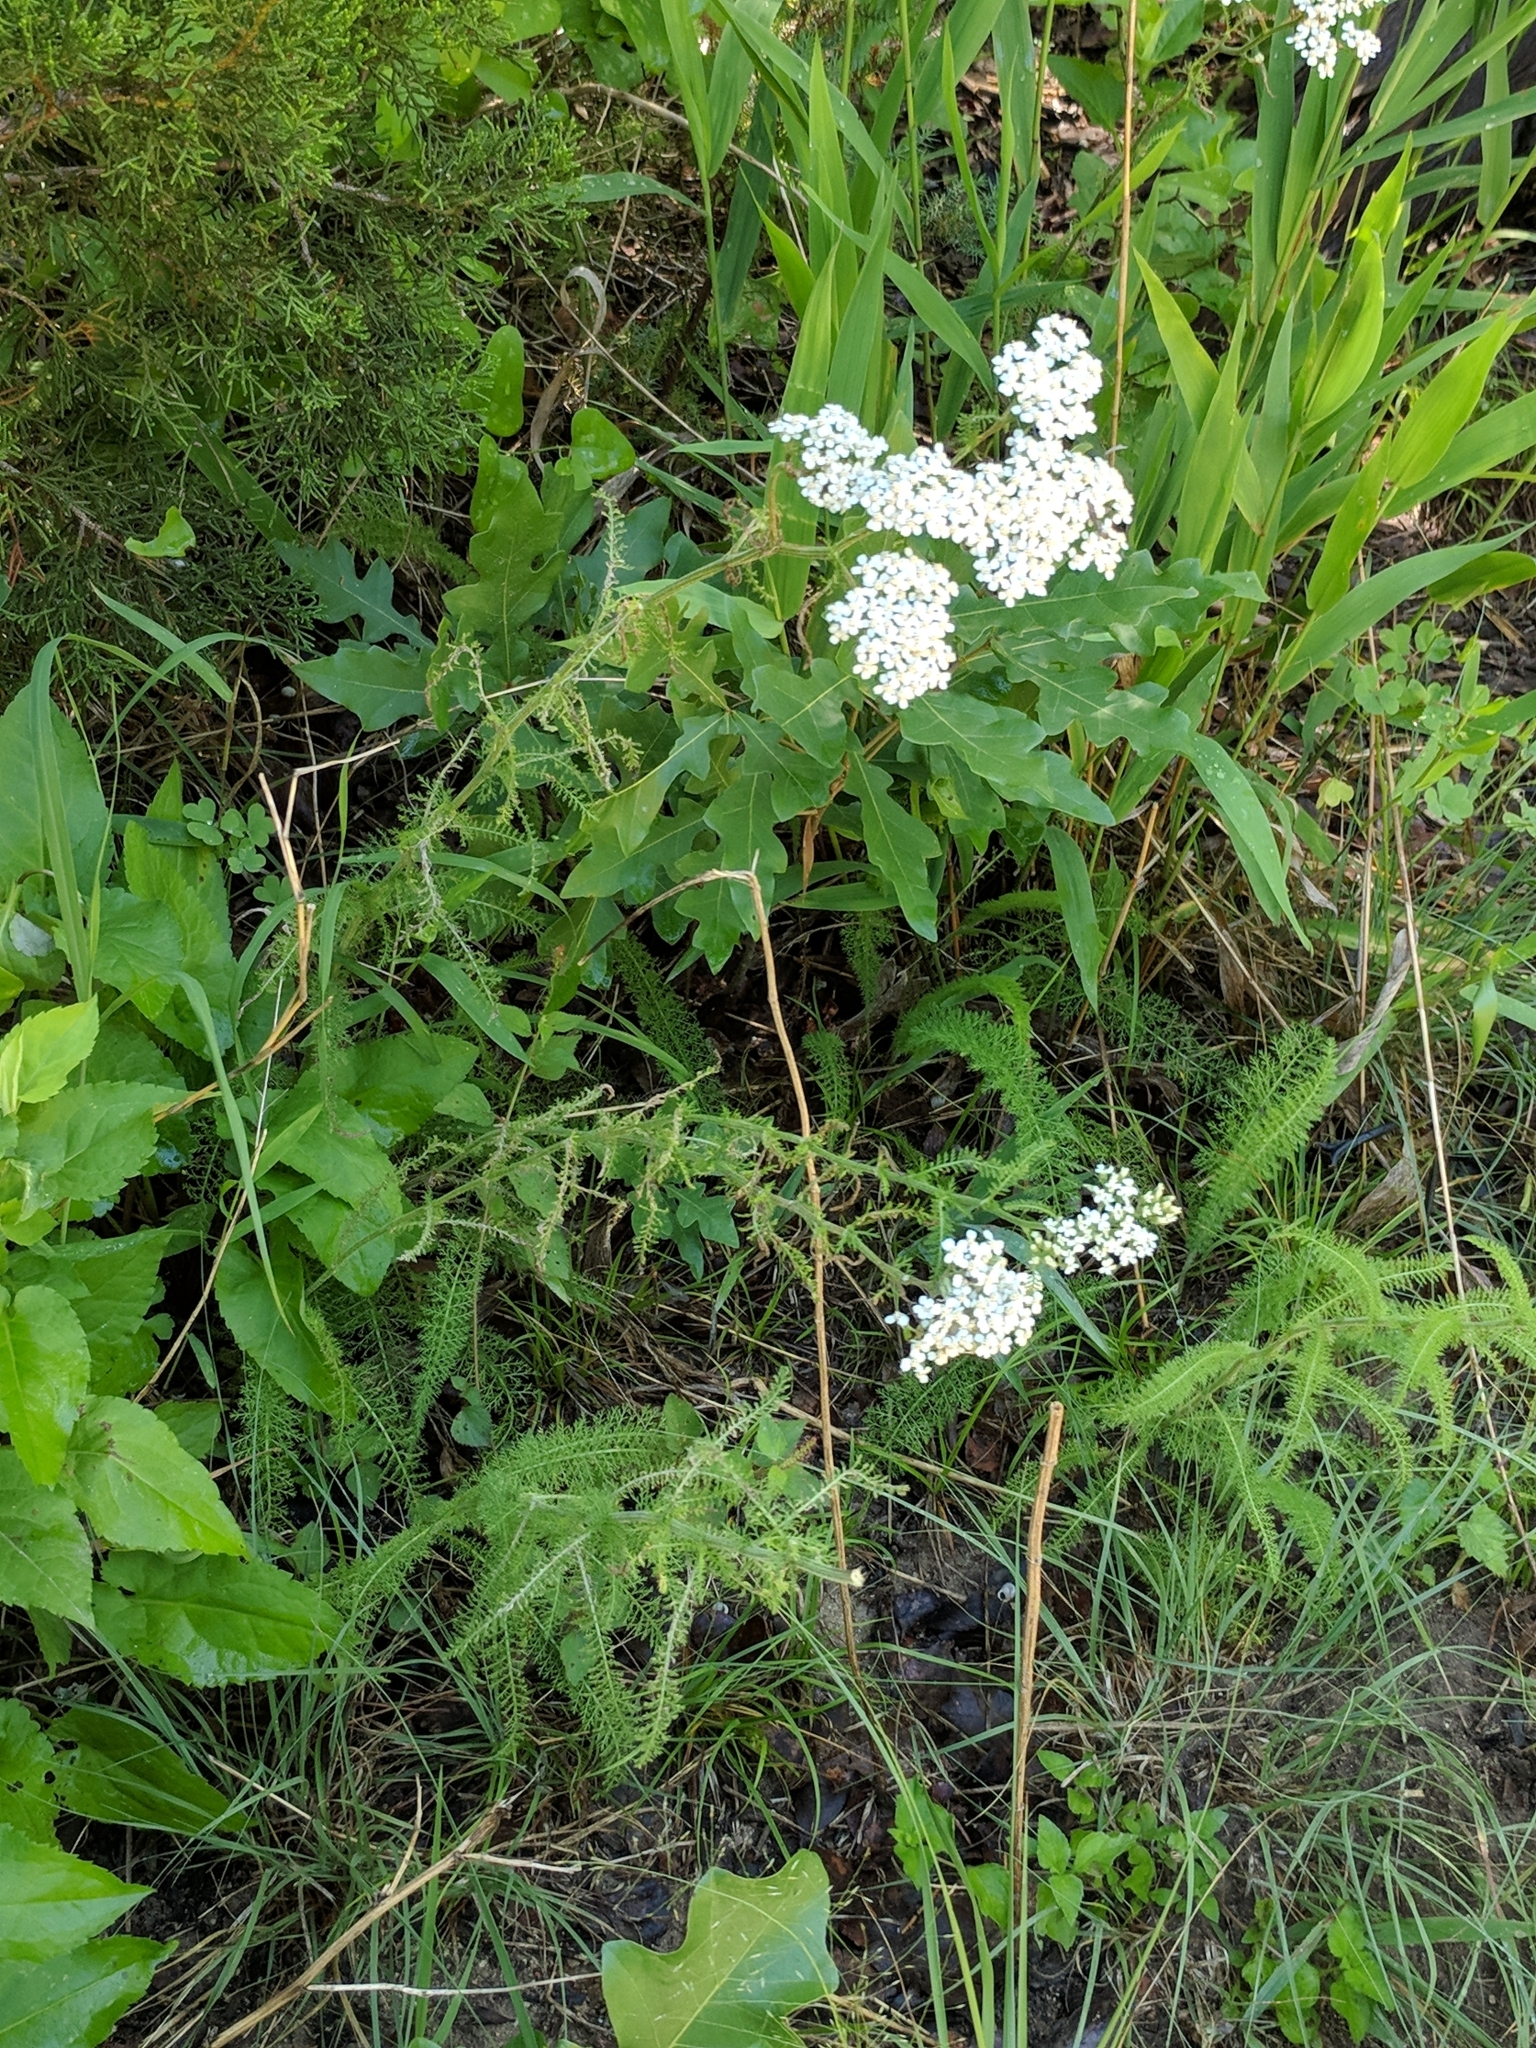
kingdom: Plantae
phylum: Tracheophyta
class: Magnoliopsida
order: Asterales
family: Asteraceae
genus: Achillea
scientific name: Achillea millefolium
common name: Yarrow
